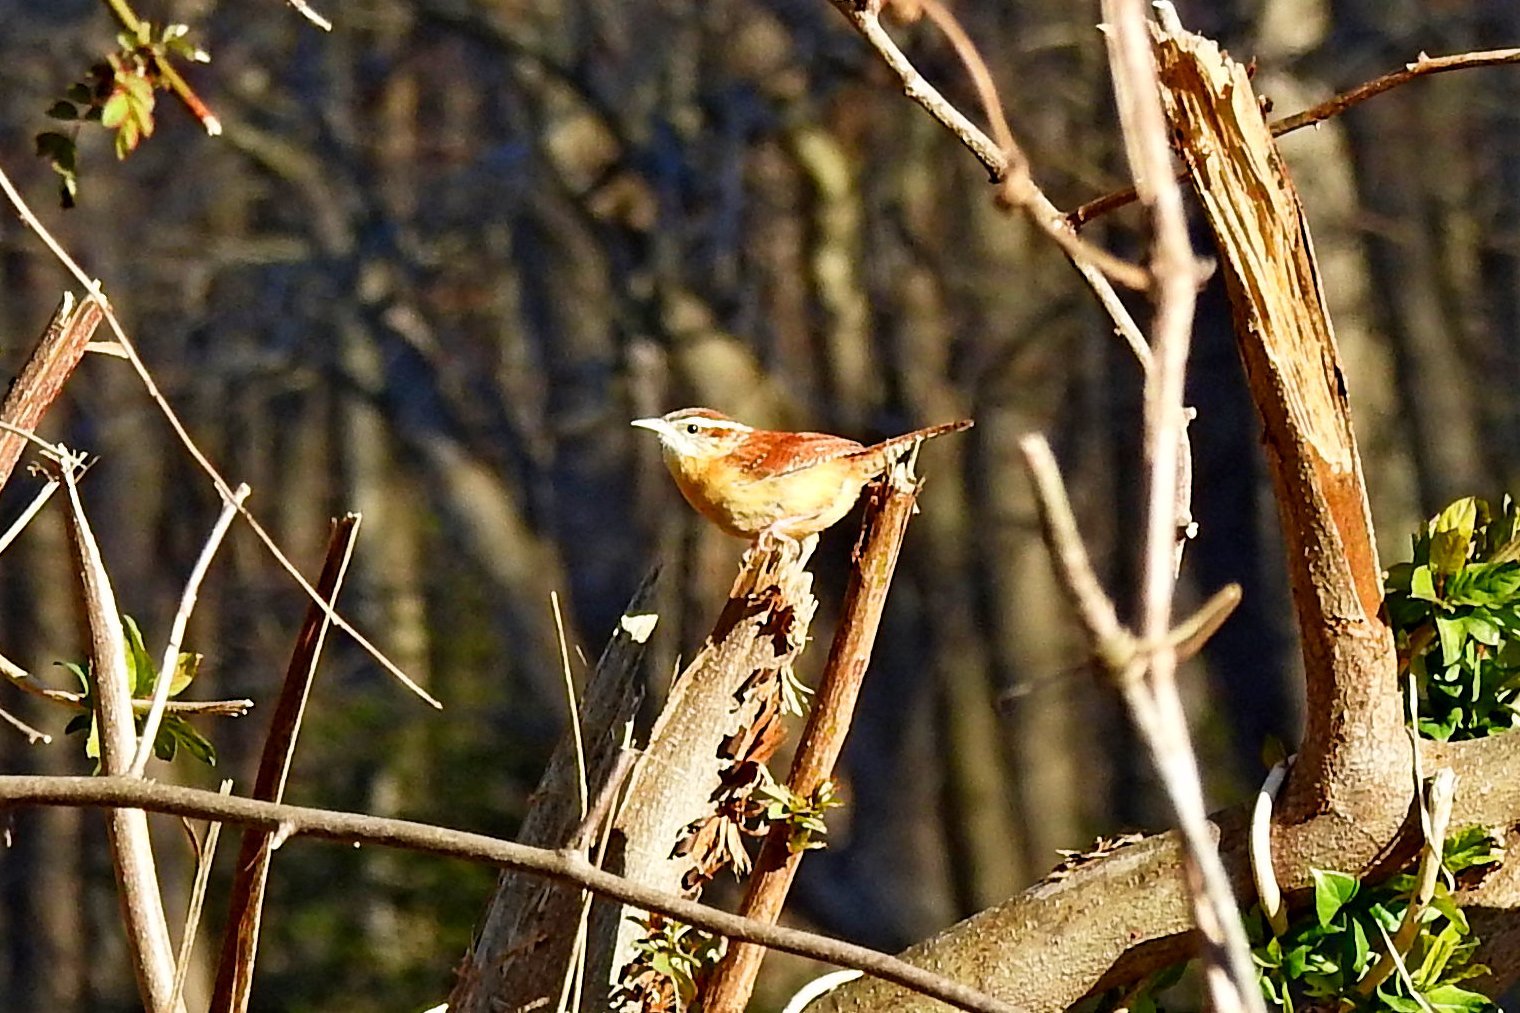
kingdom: Animalia
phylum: Chordata
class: Aves
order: Passeriformes
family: Troglodytidae
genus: Thryothorus
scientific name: Thryothorus ludovicianus
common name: Carolina wren
